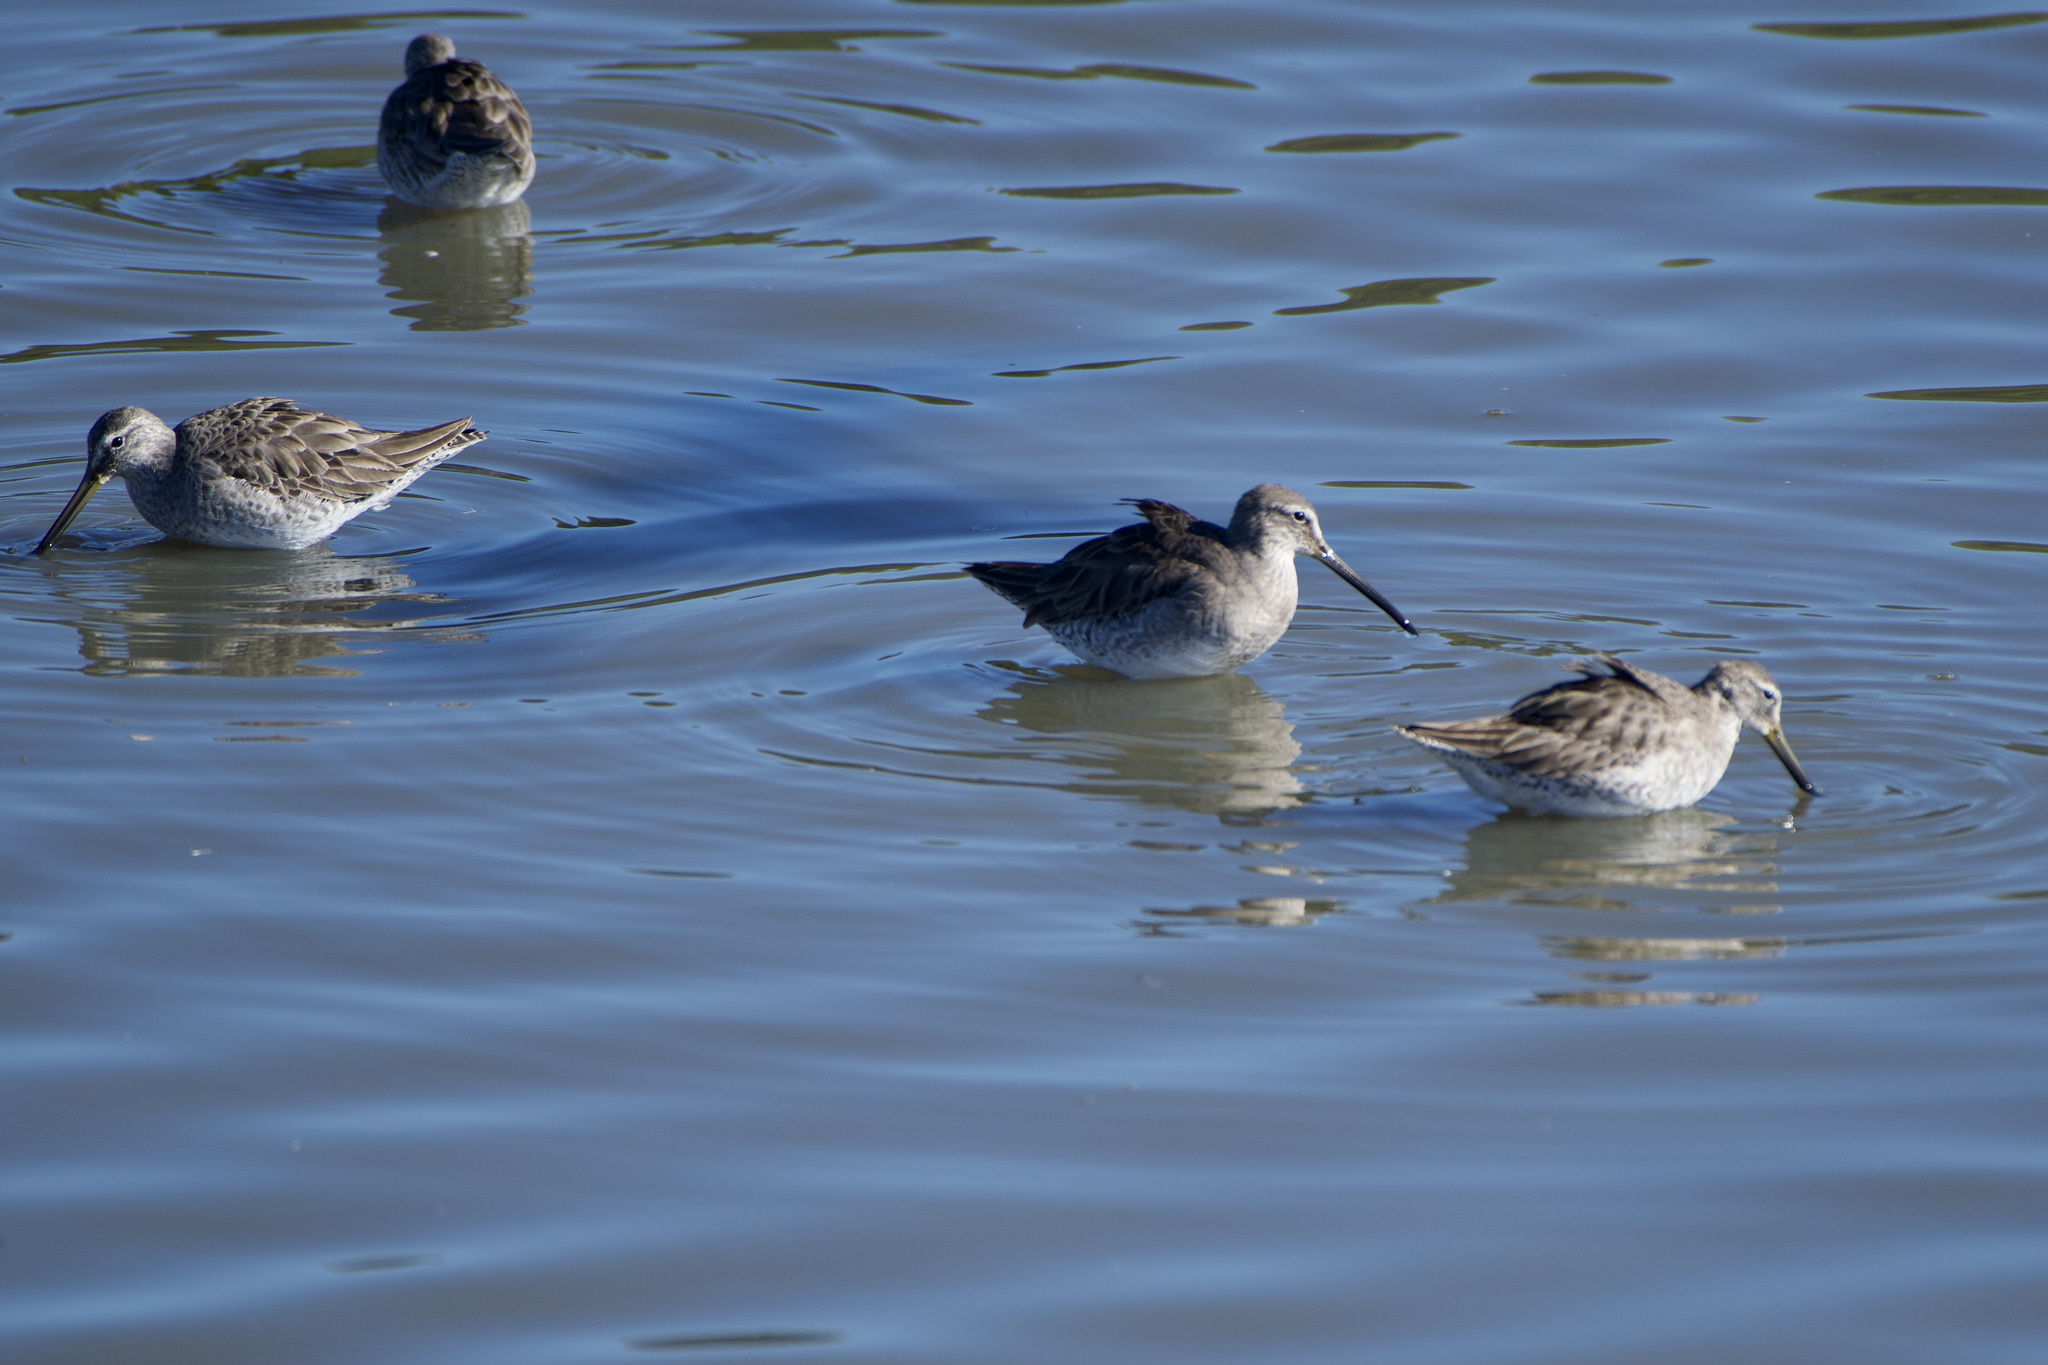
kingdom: Animalia
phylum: Chordata
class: Aves
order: Charadriiformes
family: Scolopacidae
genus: Limnodromus
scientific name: Limnodromus scolopaceus
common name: Long-billed dowitcher
